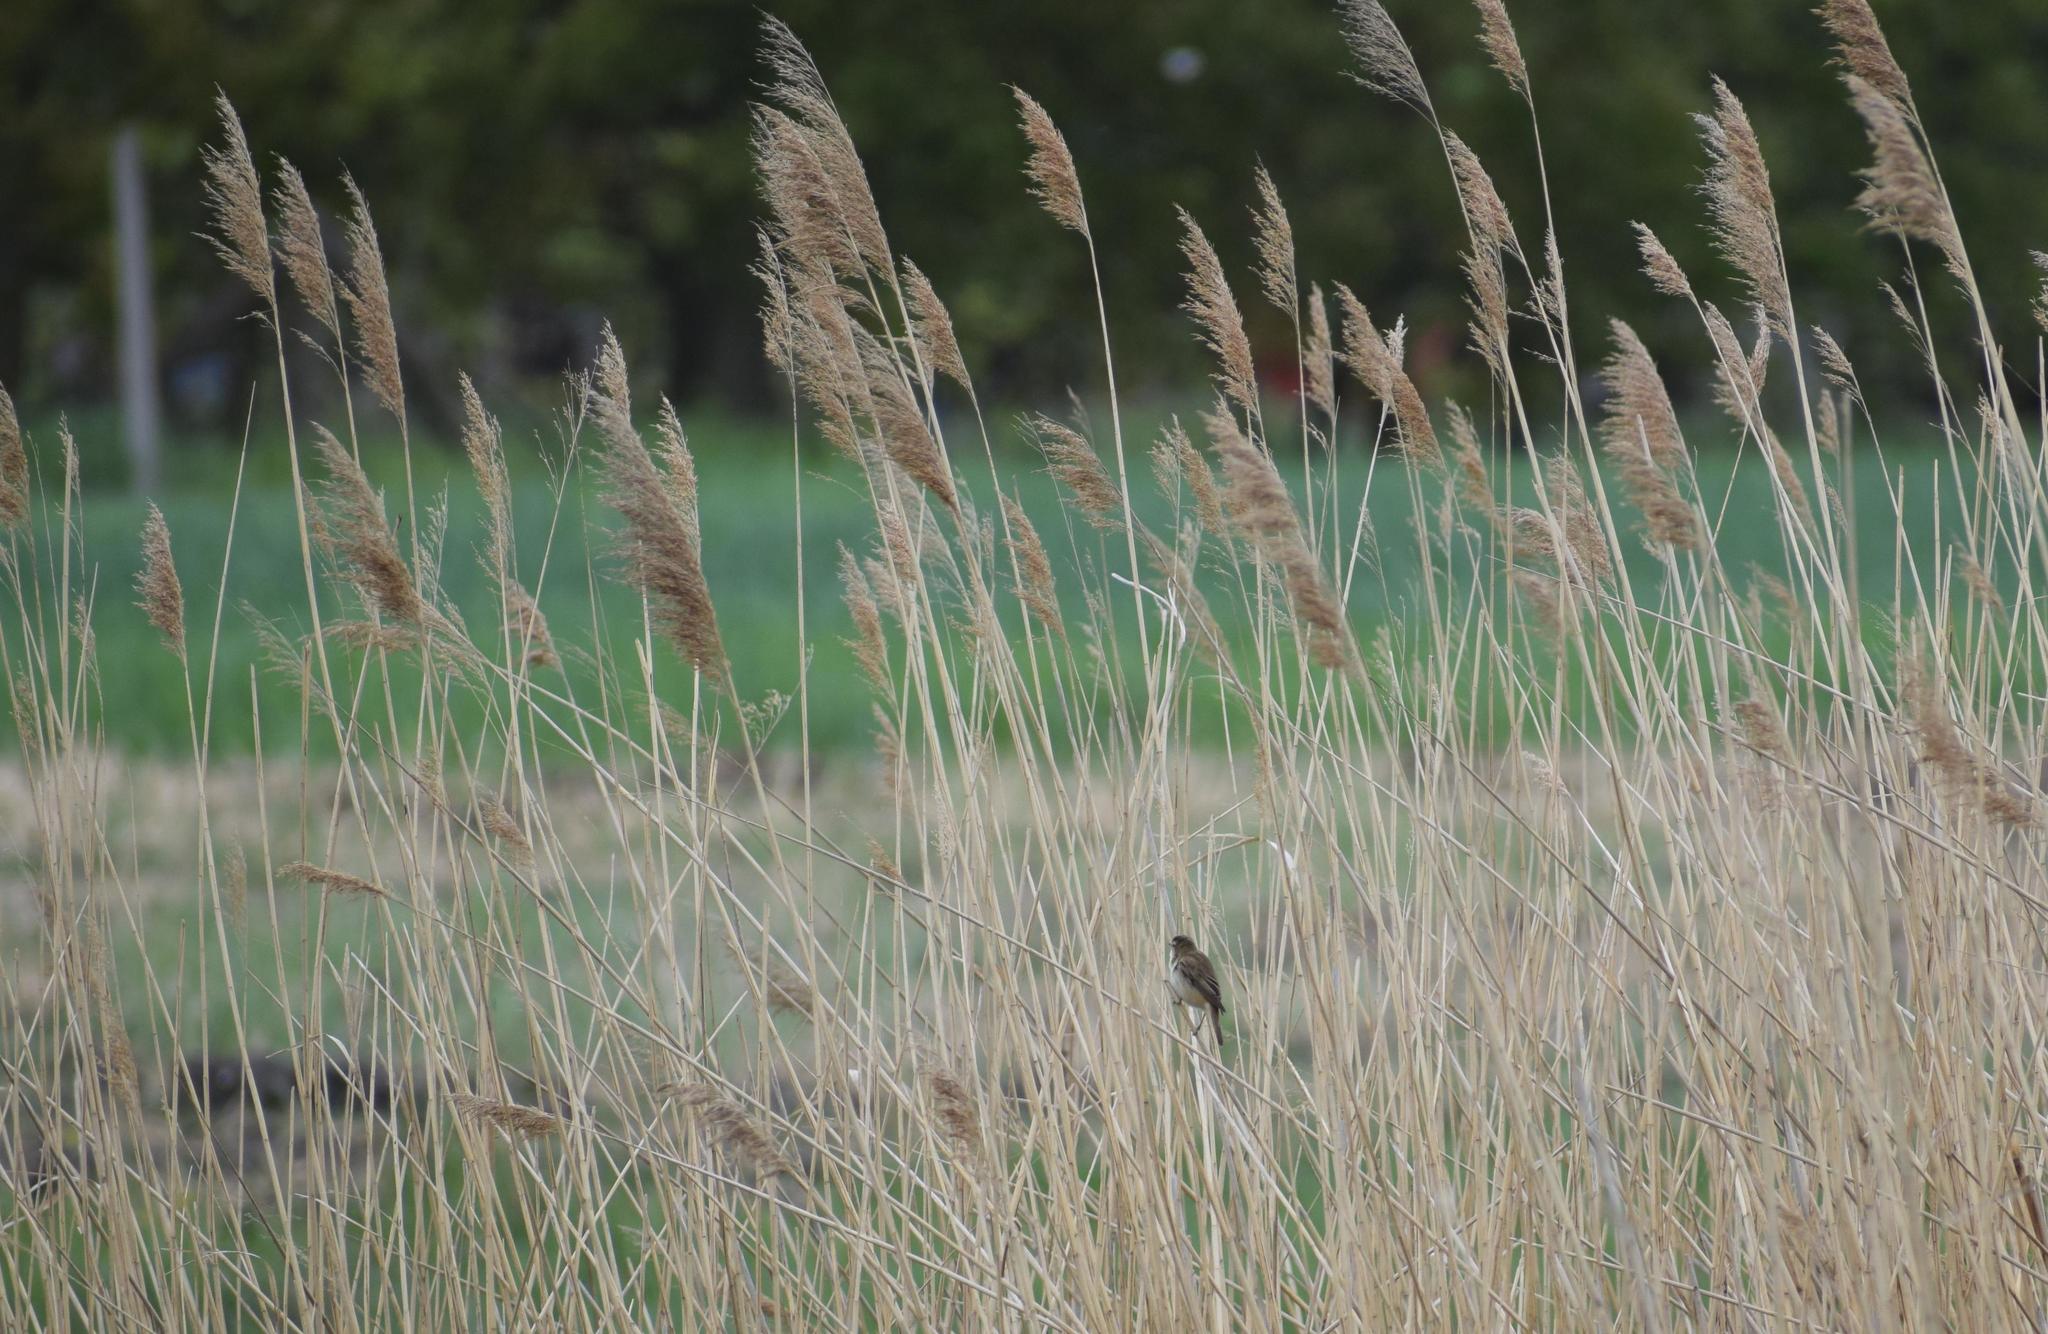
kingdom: Animalia
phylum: Chordata
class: Aves
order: Passeriformes
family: Acrocephalidae
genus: Acrocephalus
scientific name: Acrocephalus schoenobaenus
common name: Sedge warbler
